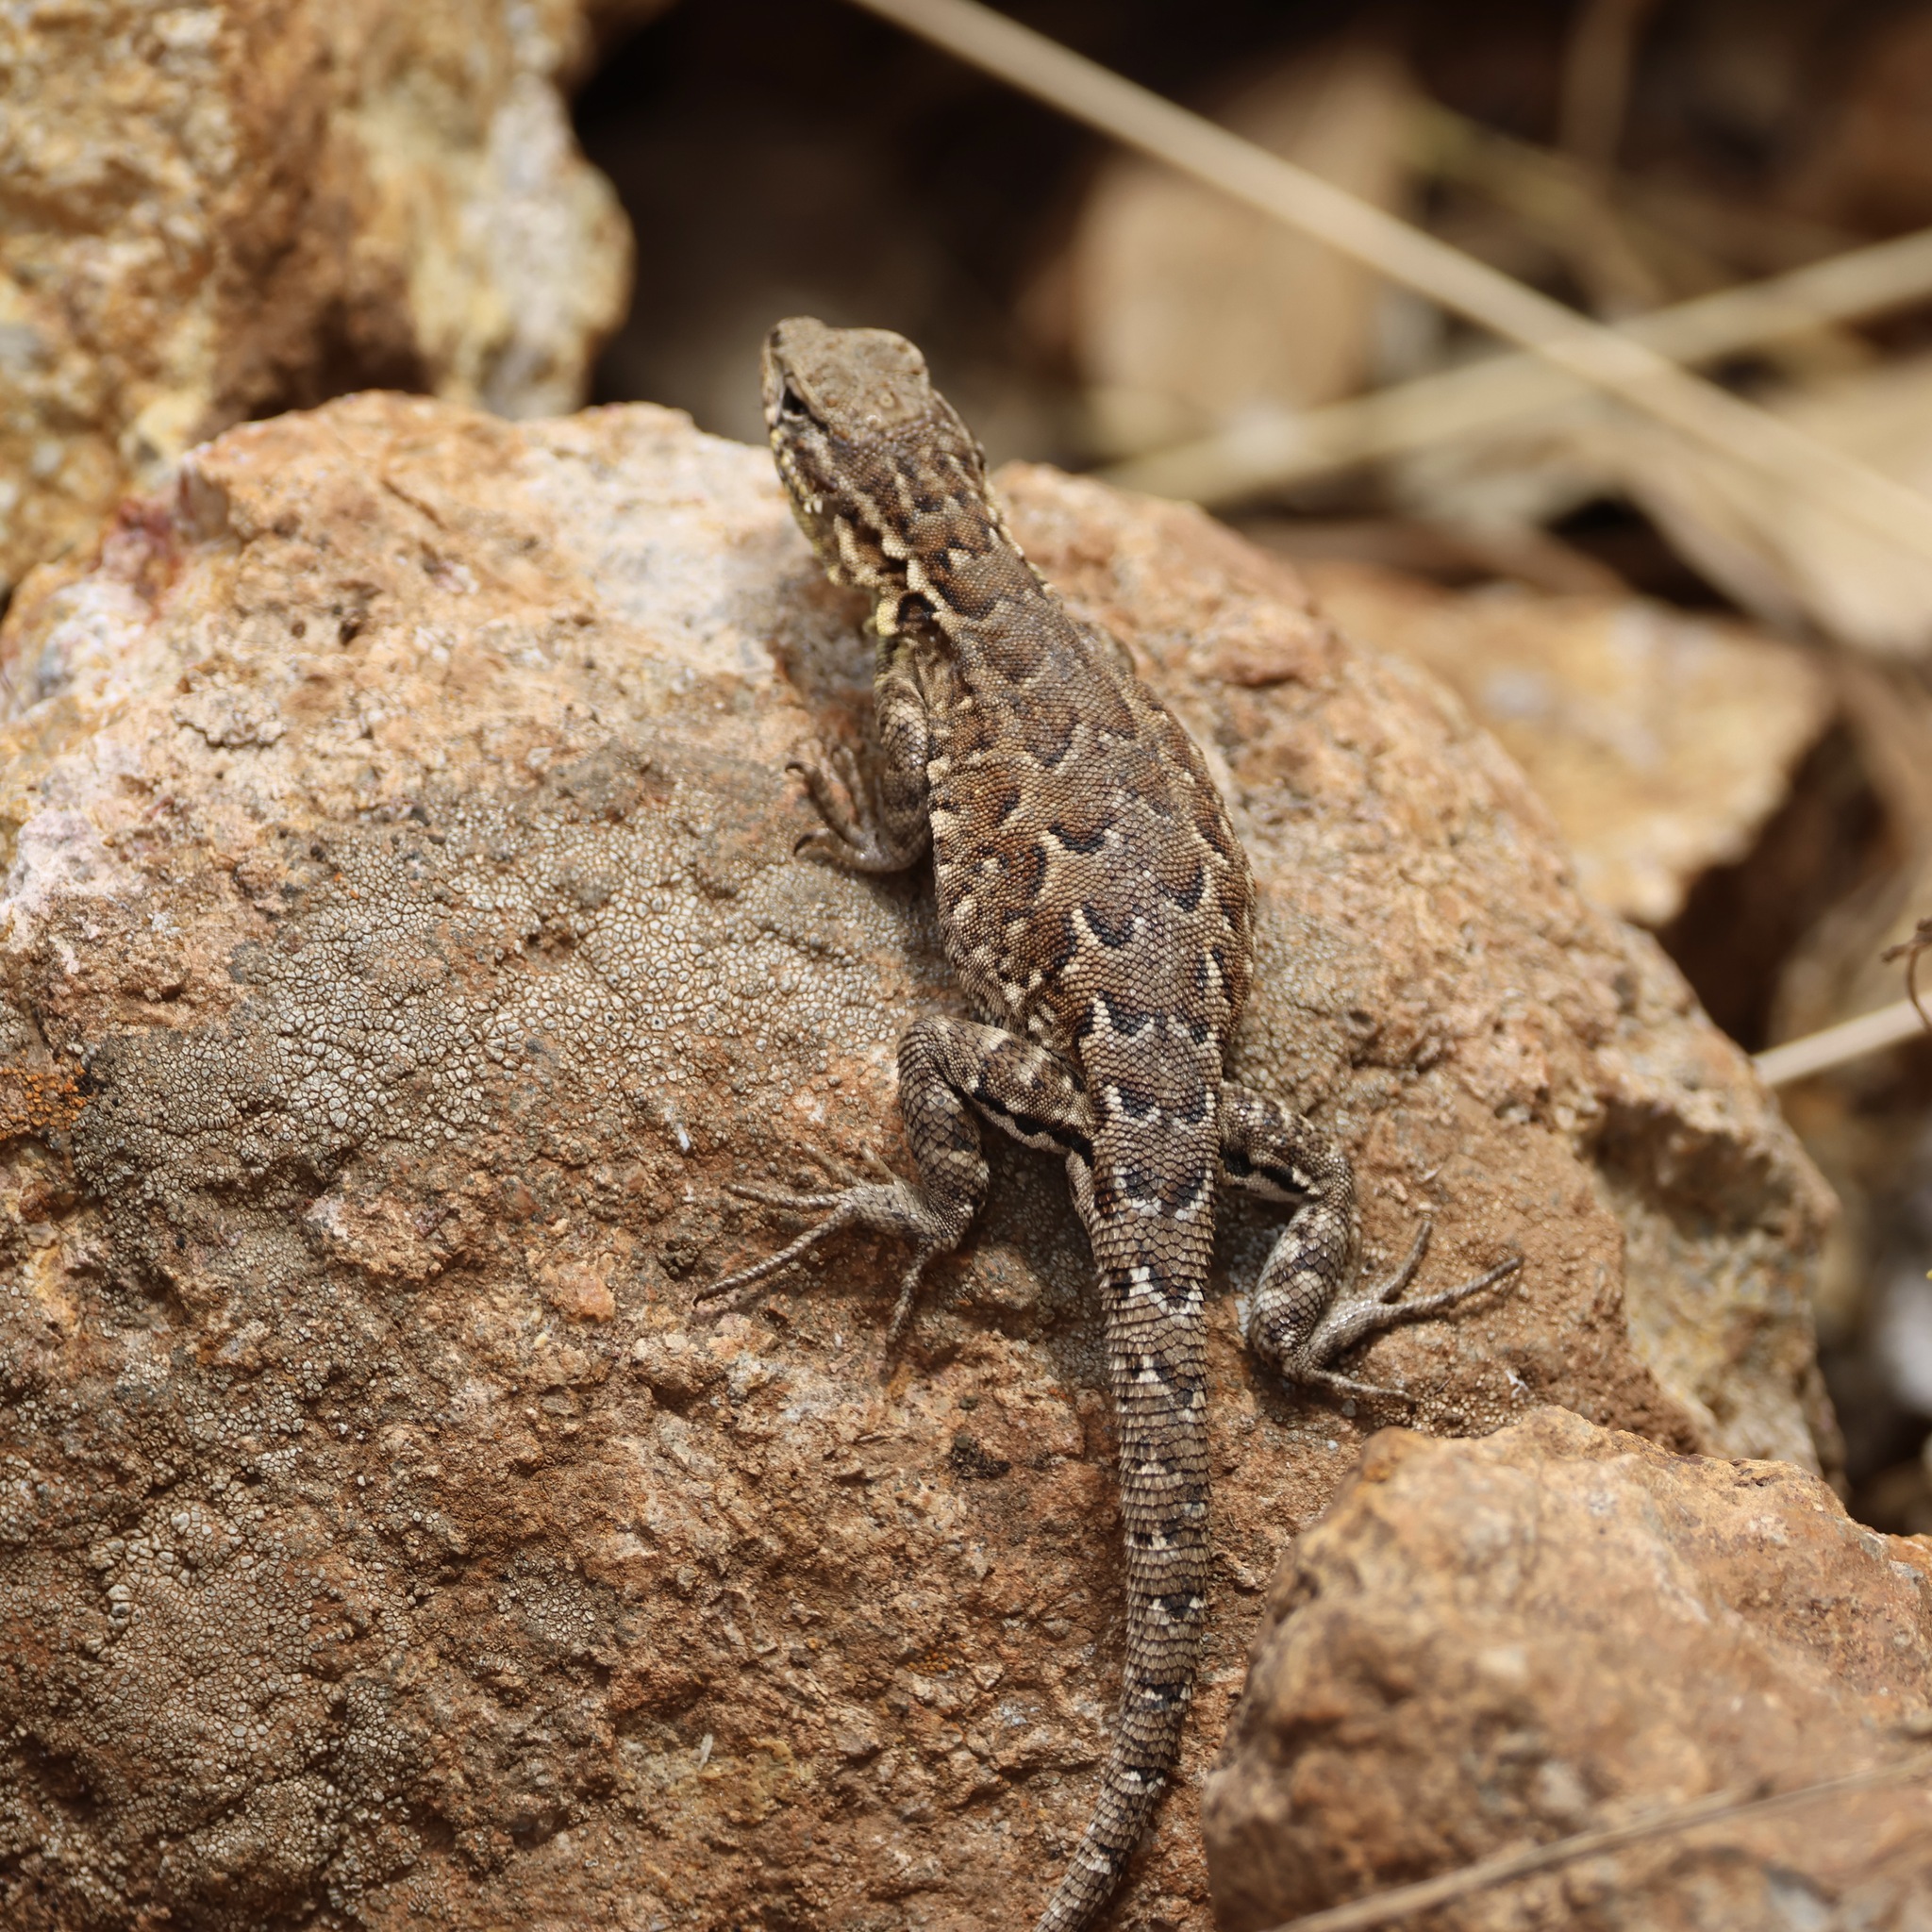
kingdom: Animalia
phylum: Chordata
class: Squamata
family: Phrynosomatidae
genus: Uta
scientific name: Uta stansburiana
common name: Side-blotched lizard
